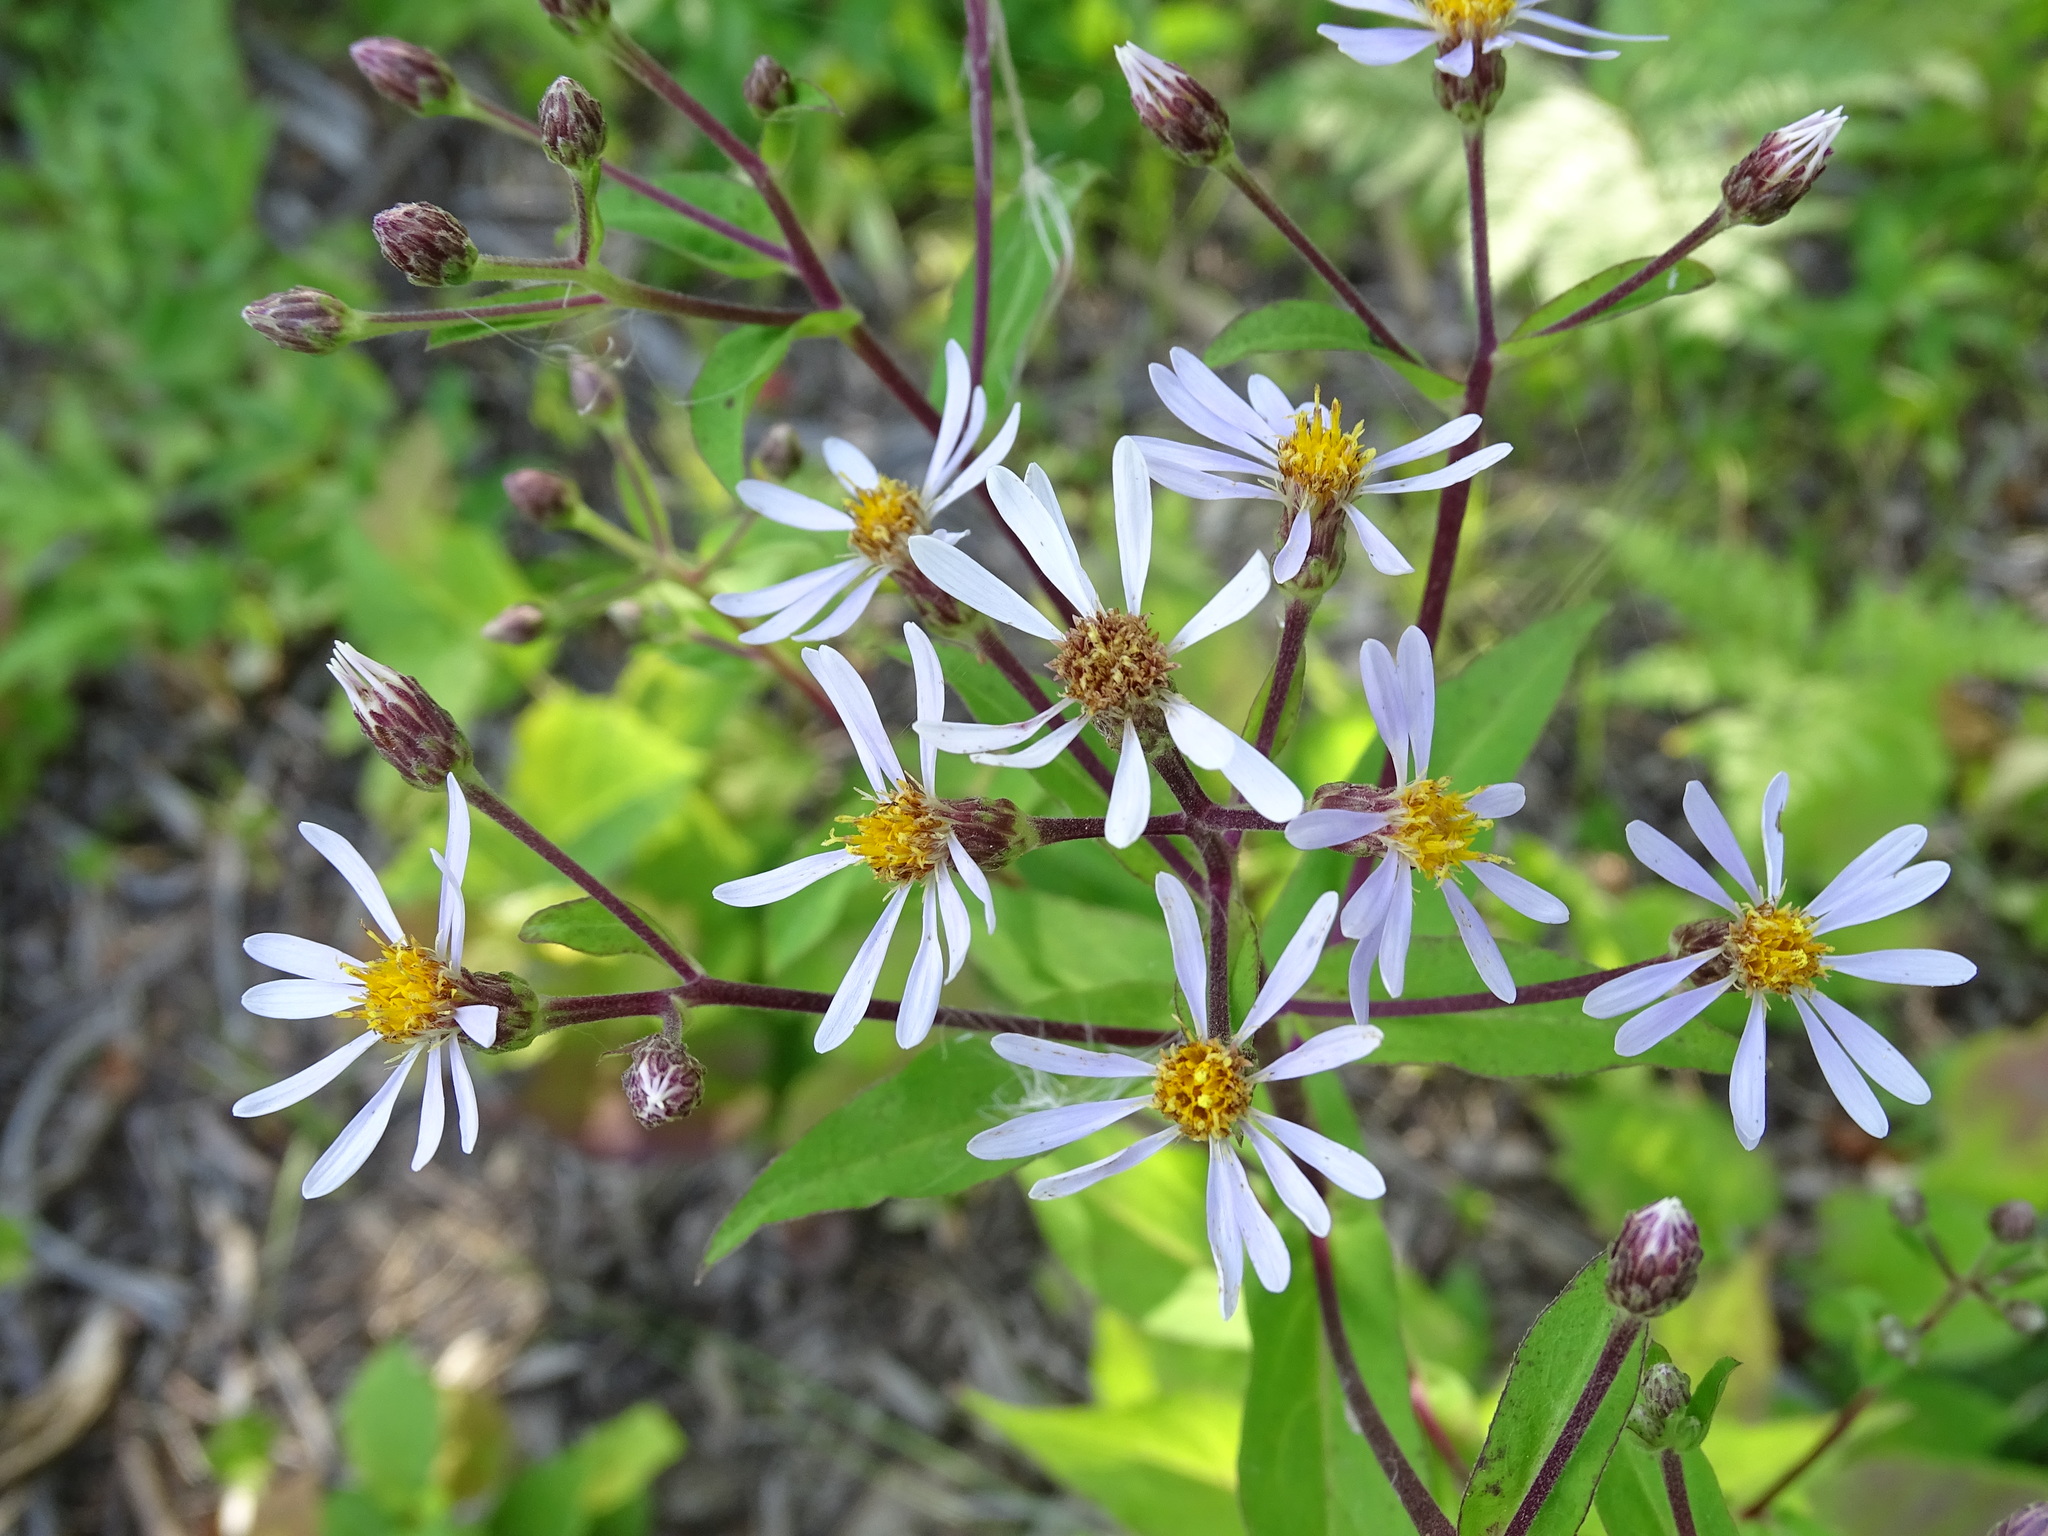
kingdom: Plantae
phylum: Tracheophyta
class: Magnoliopsida
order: Asterales
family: Asteraceae
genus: Eurybia
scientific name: Eurybia macrophylla
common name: Big-leaved aster
